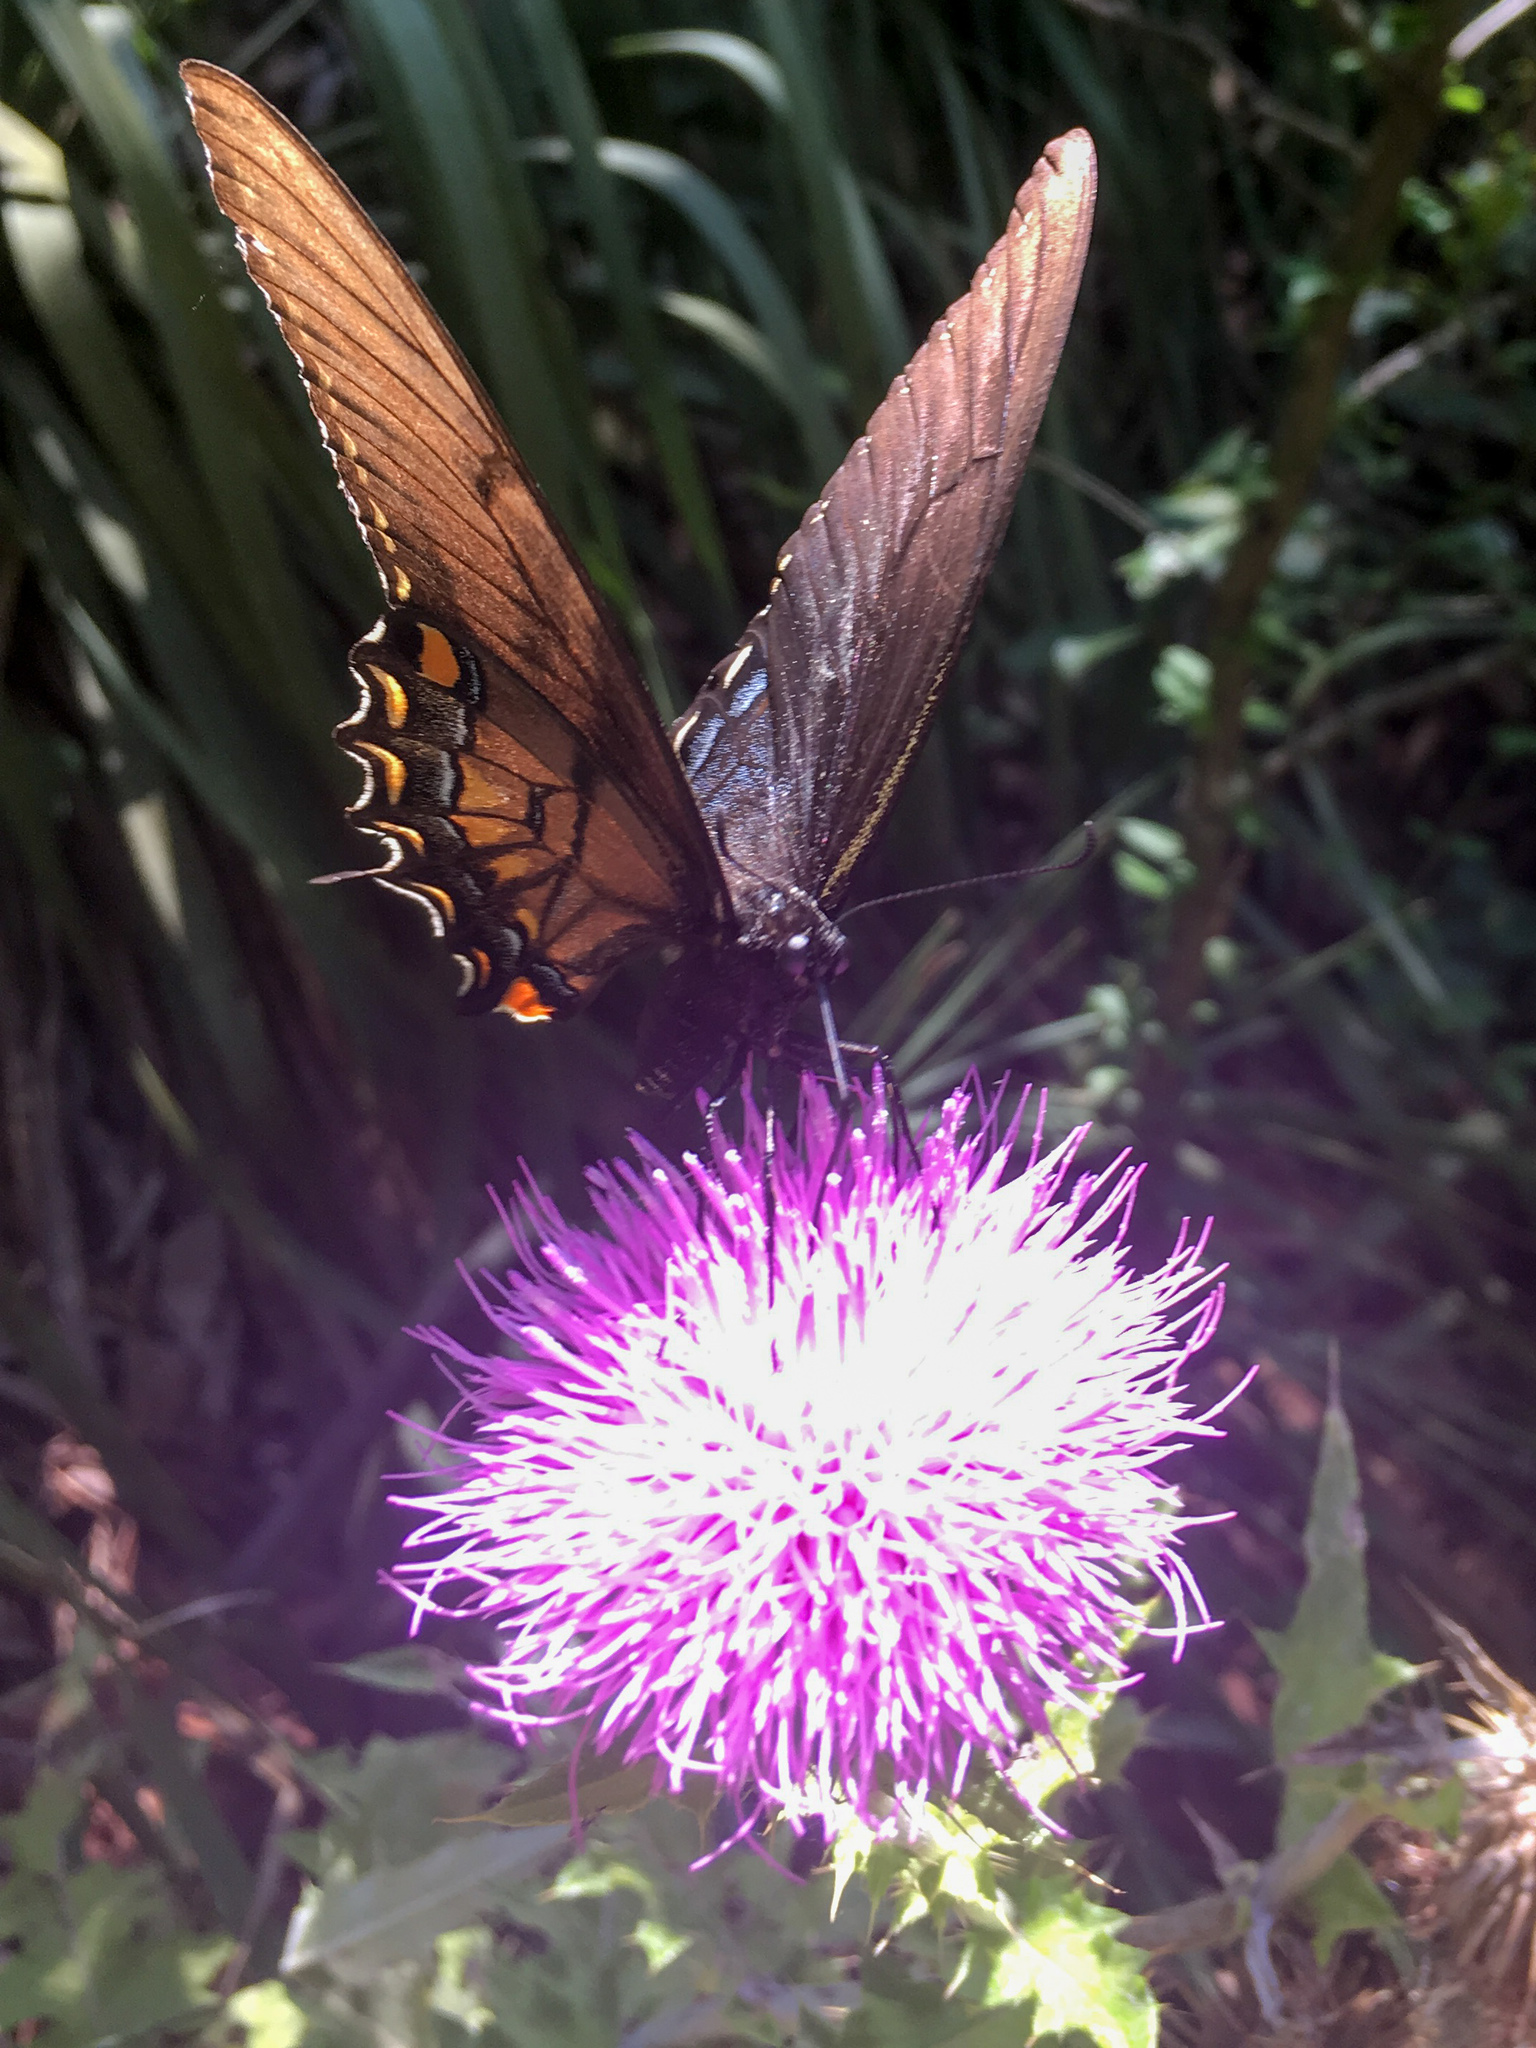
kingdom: Animalia
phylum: Arthropoda
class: Insecta
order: Lepidoptera
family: Papilionidae
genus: Papilio
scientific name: Papilio glaucus
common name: Tiger swallowtail
